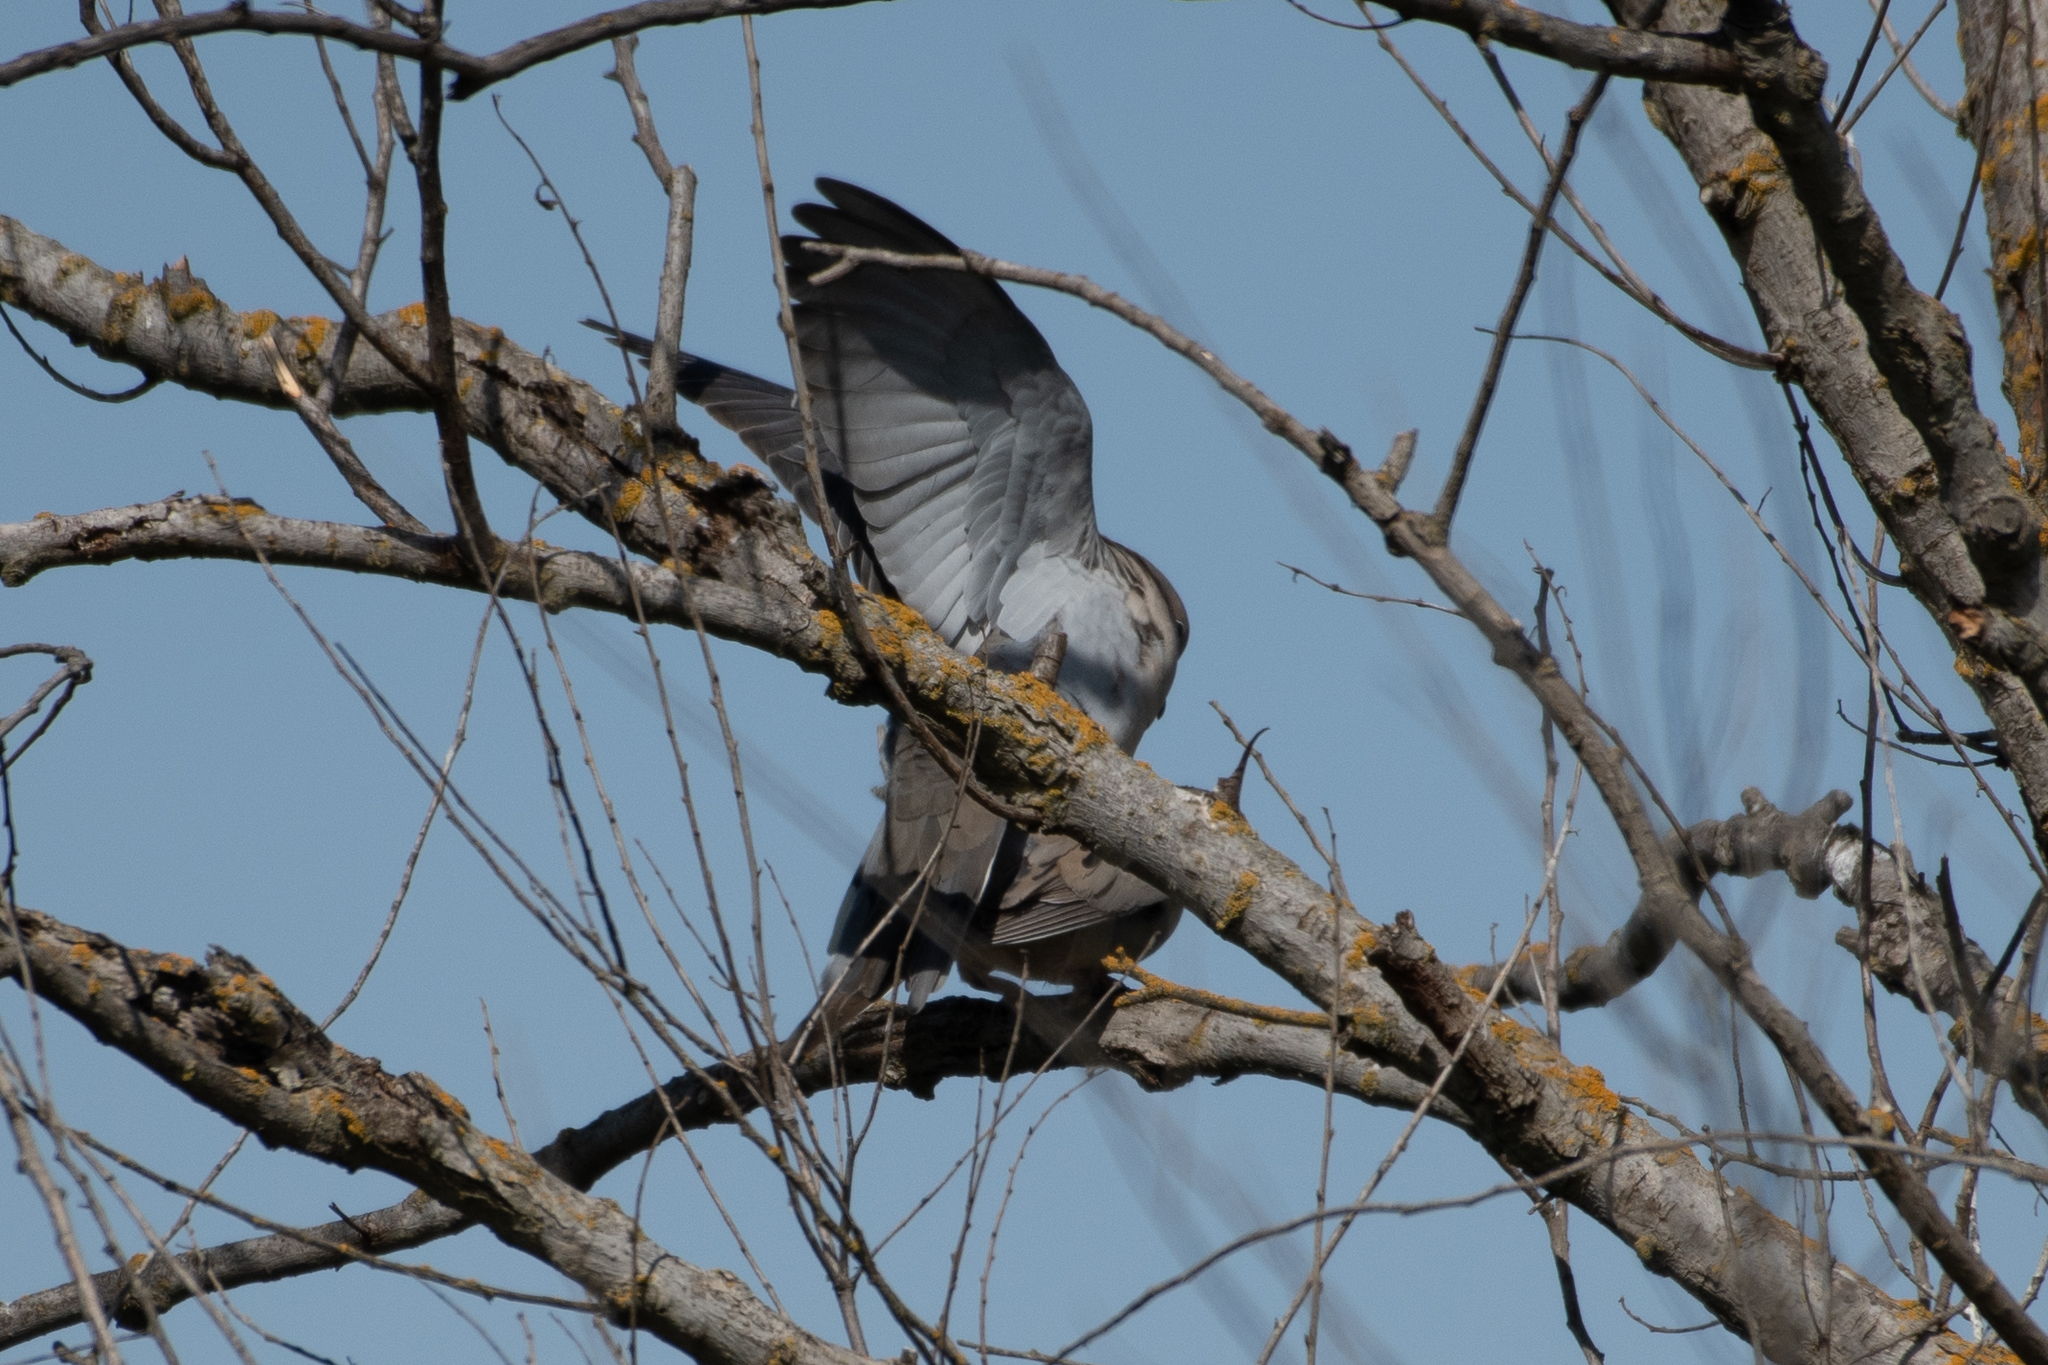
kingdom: Animalia
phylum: Chordata
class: Aves
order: Columbiformes
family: Columbidae
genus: Zenaida
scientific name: Zenaida macroura
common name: Mourning dove
